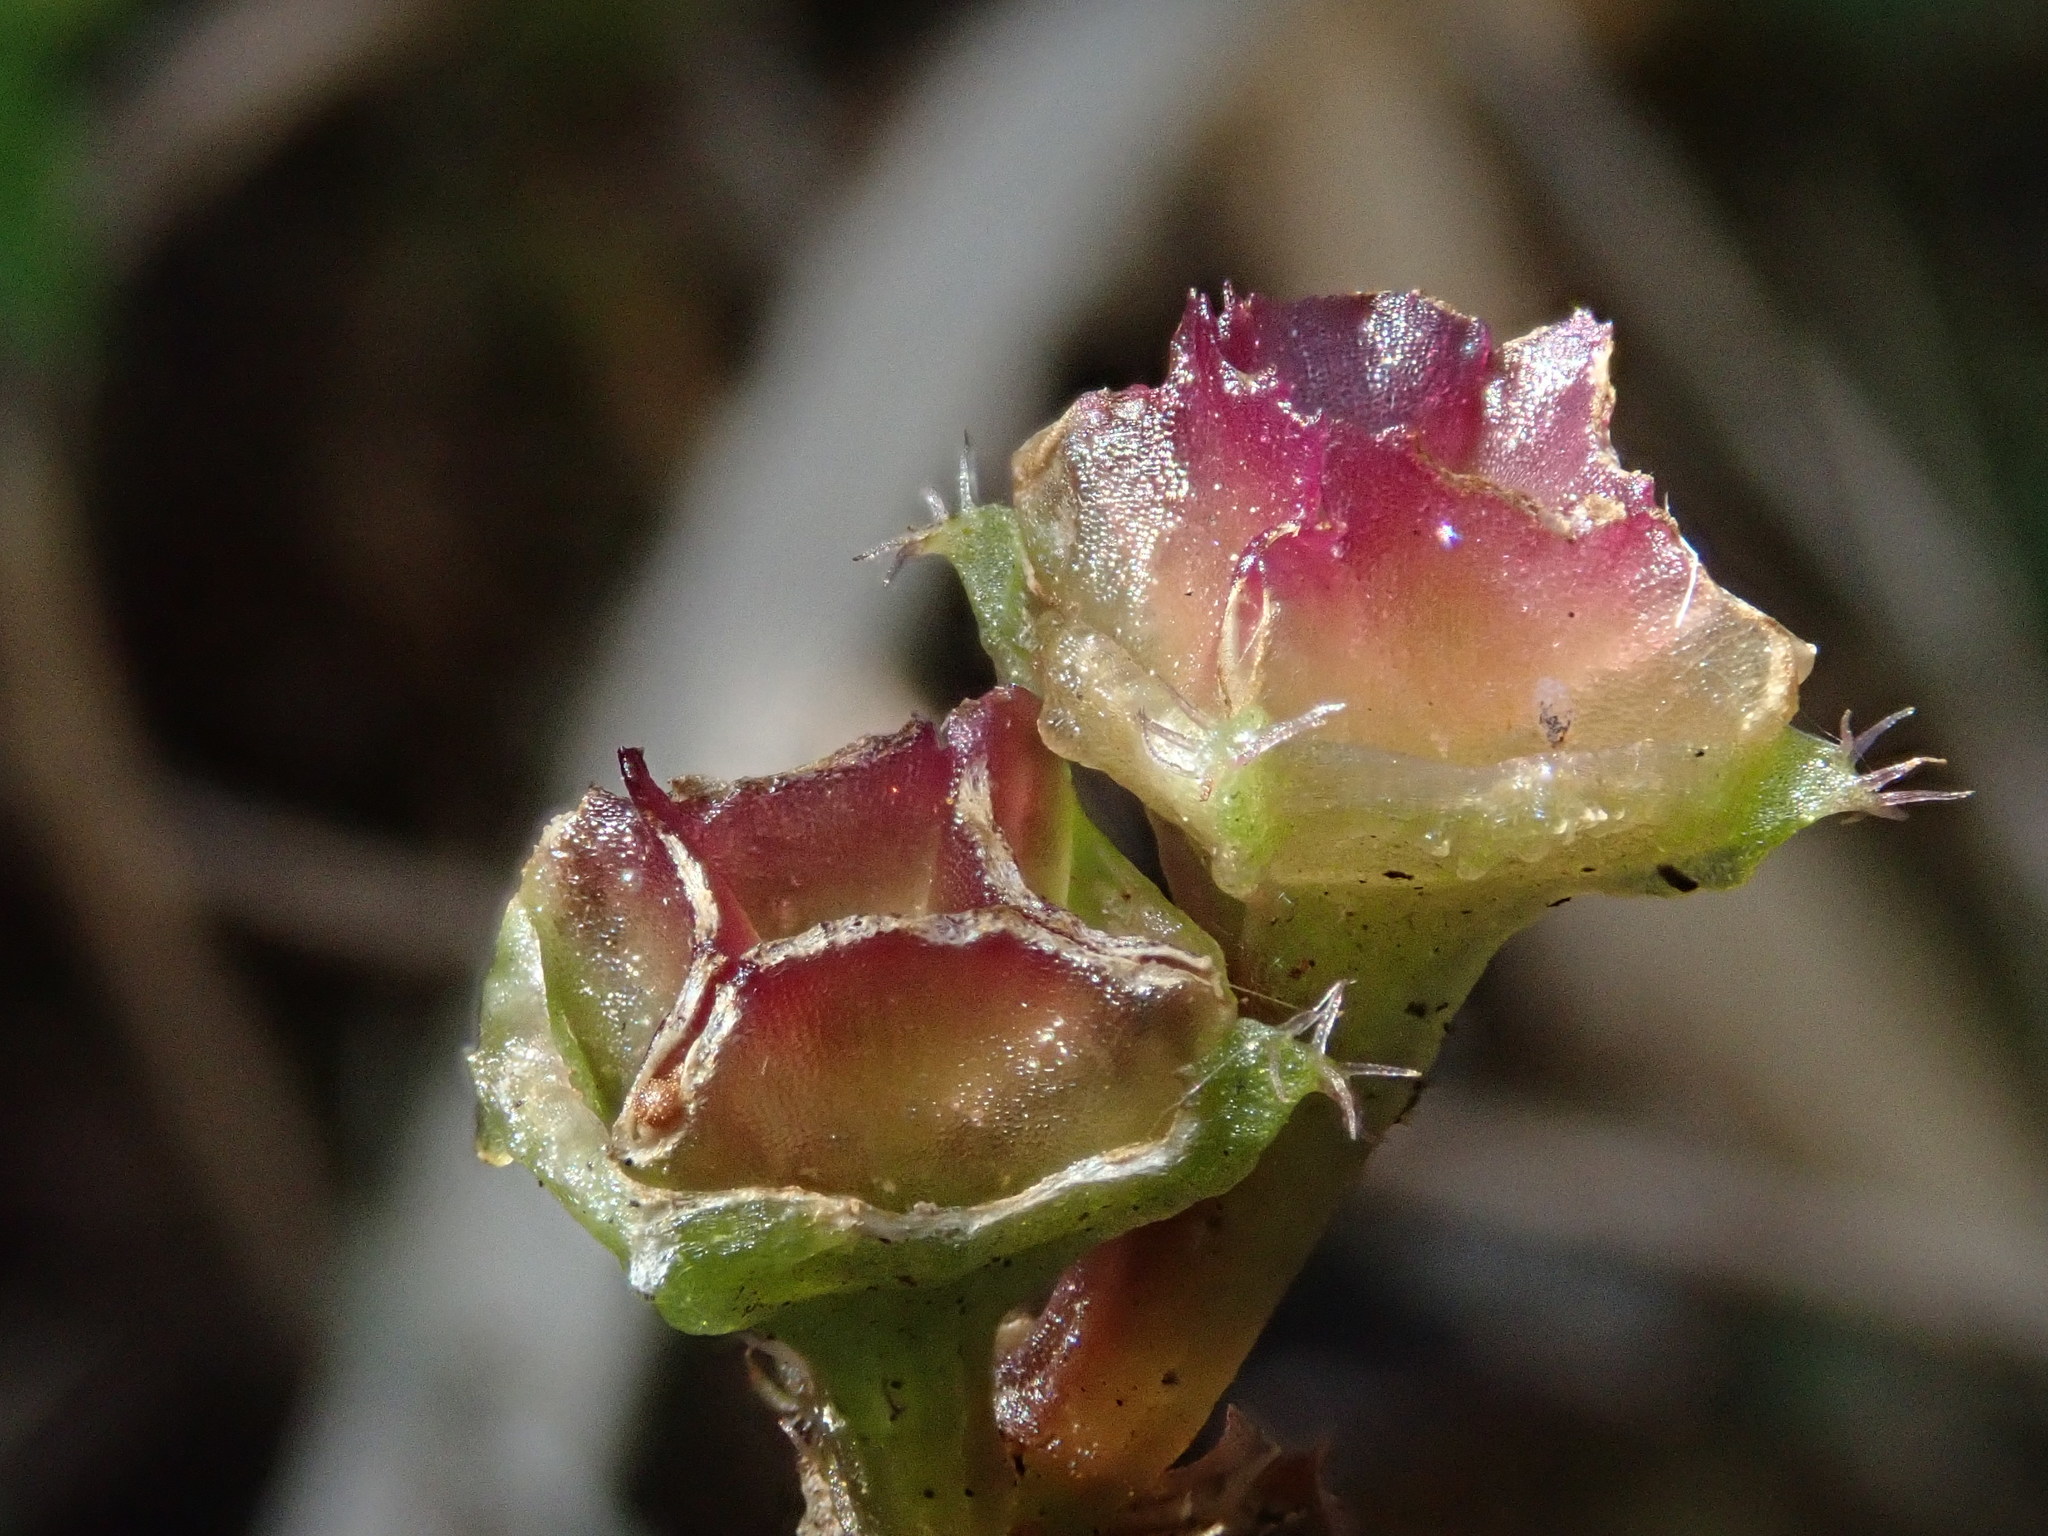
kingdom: Plantae
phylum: Tracheophyta
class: Magnoliopsida
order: Myrtales
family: Melastomataceae
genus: Sarcopyramis
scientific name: Sarcopyramis napalensis
